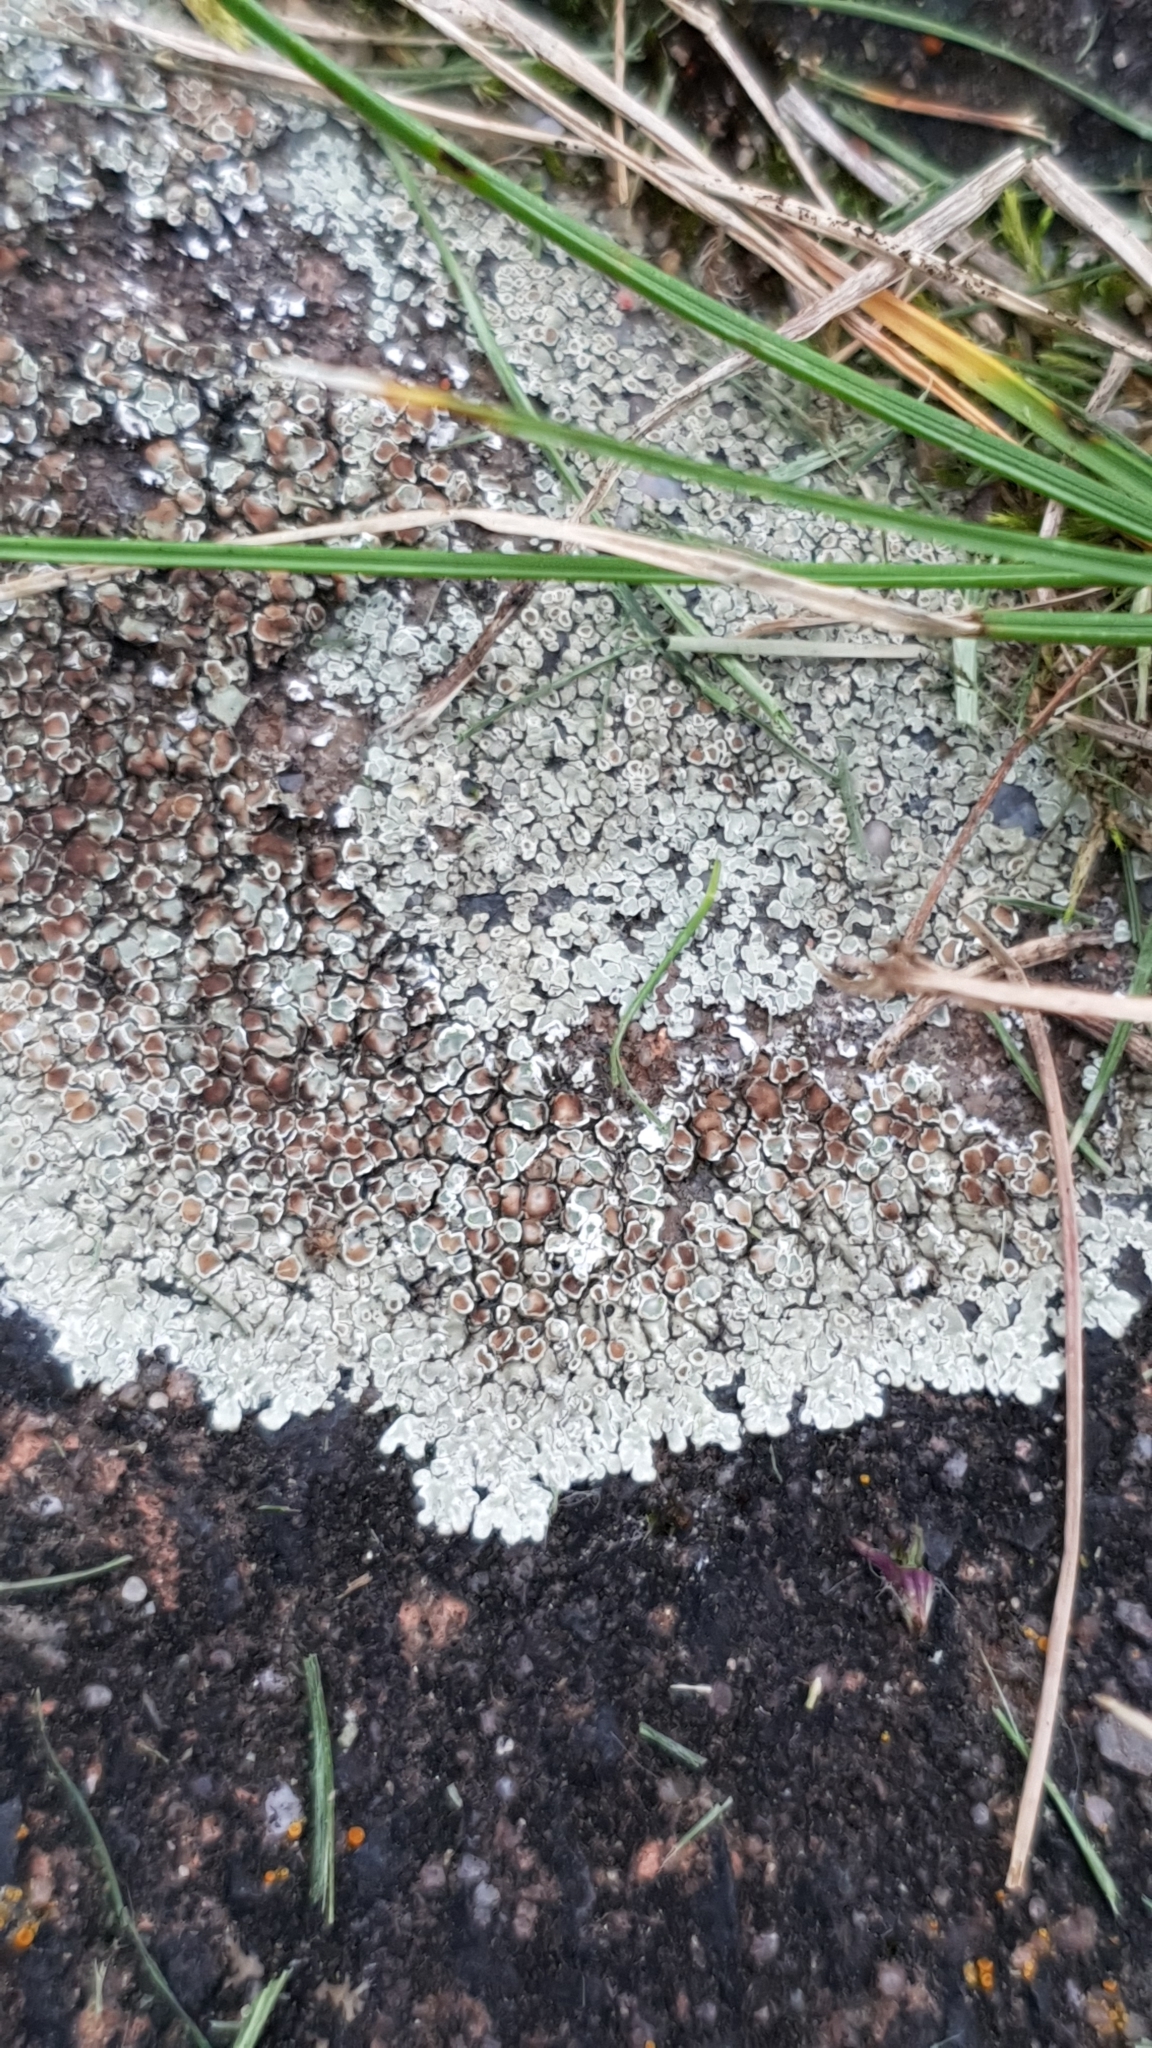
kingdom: Fungi
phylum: Ascomycota
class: Lecanoromycetes
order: Lecanorales
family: Lecanoraceae
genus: Protoparmeliopsis
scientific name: Protoparmeliopsis muralis
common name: Stonewall rim lichen
